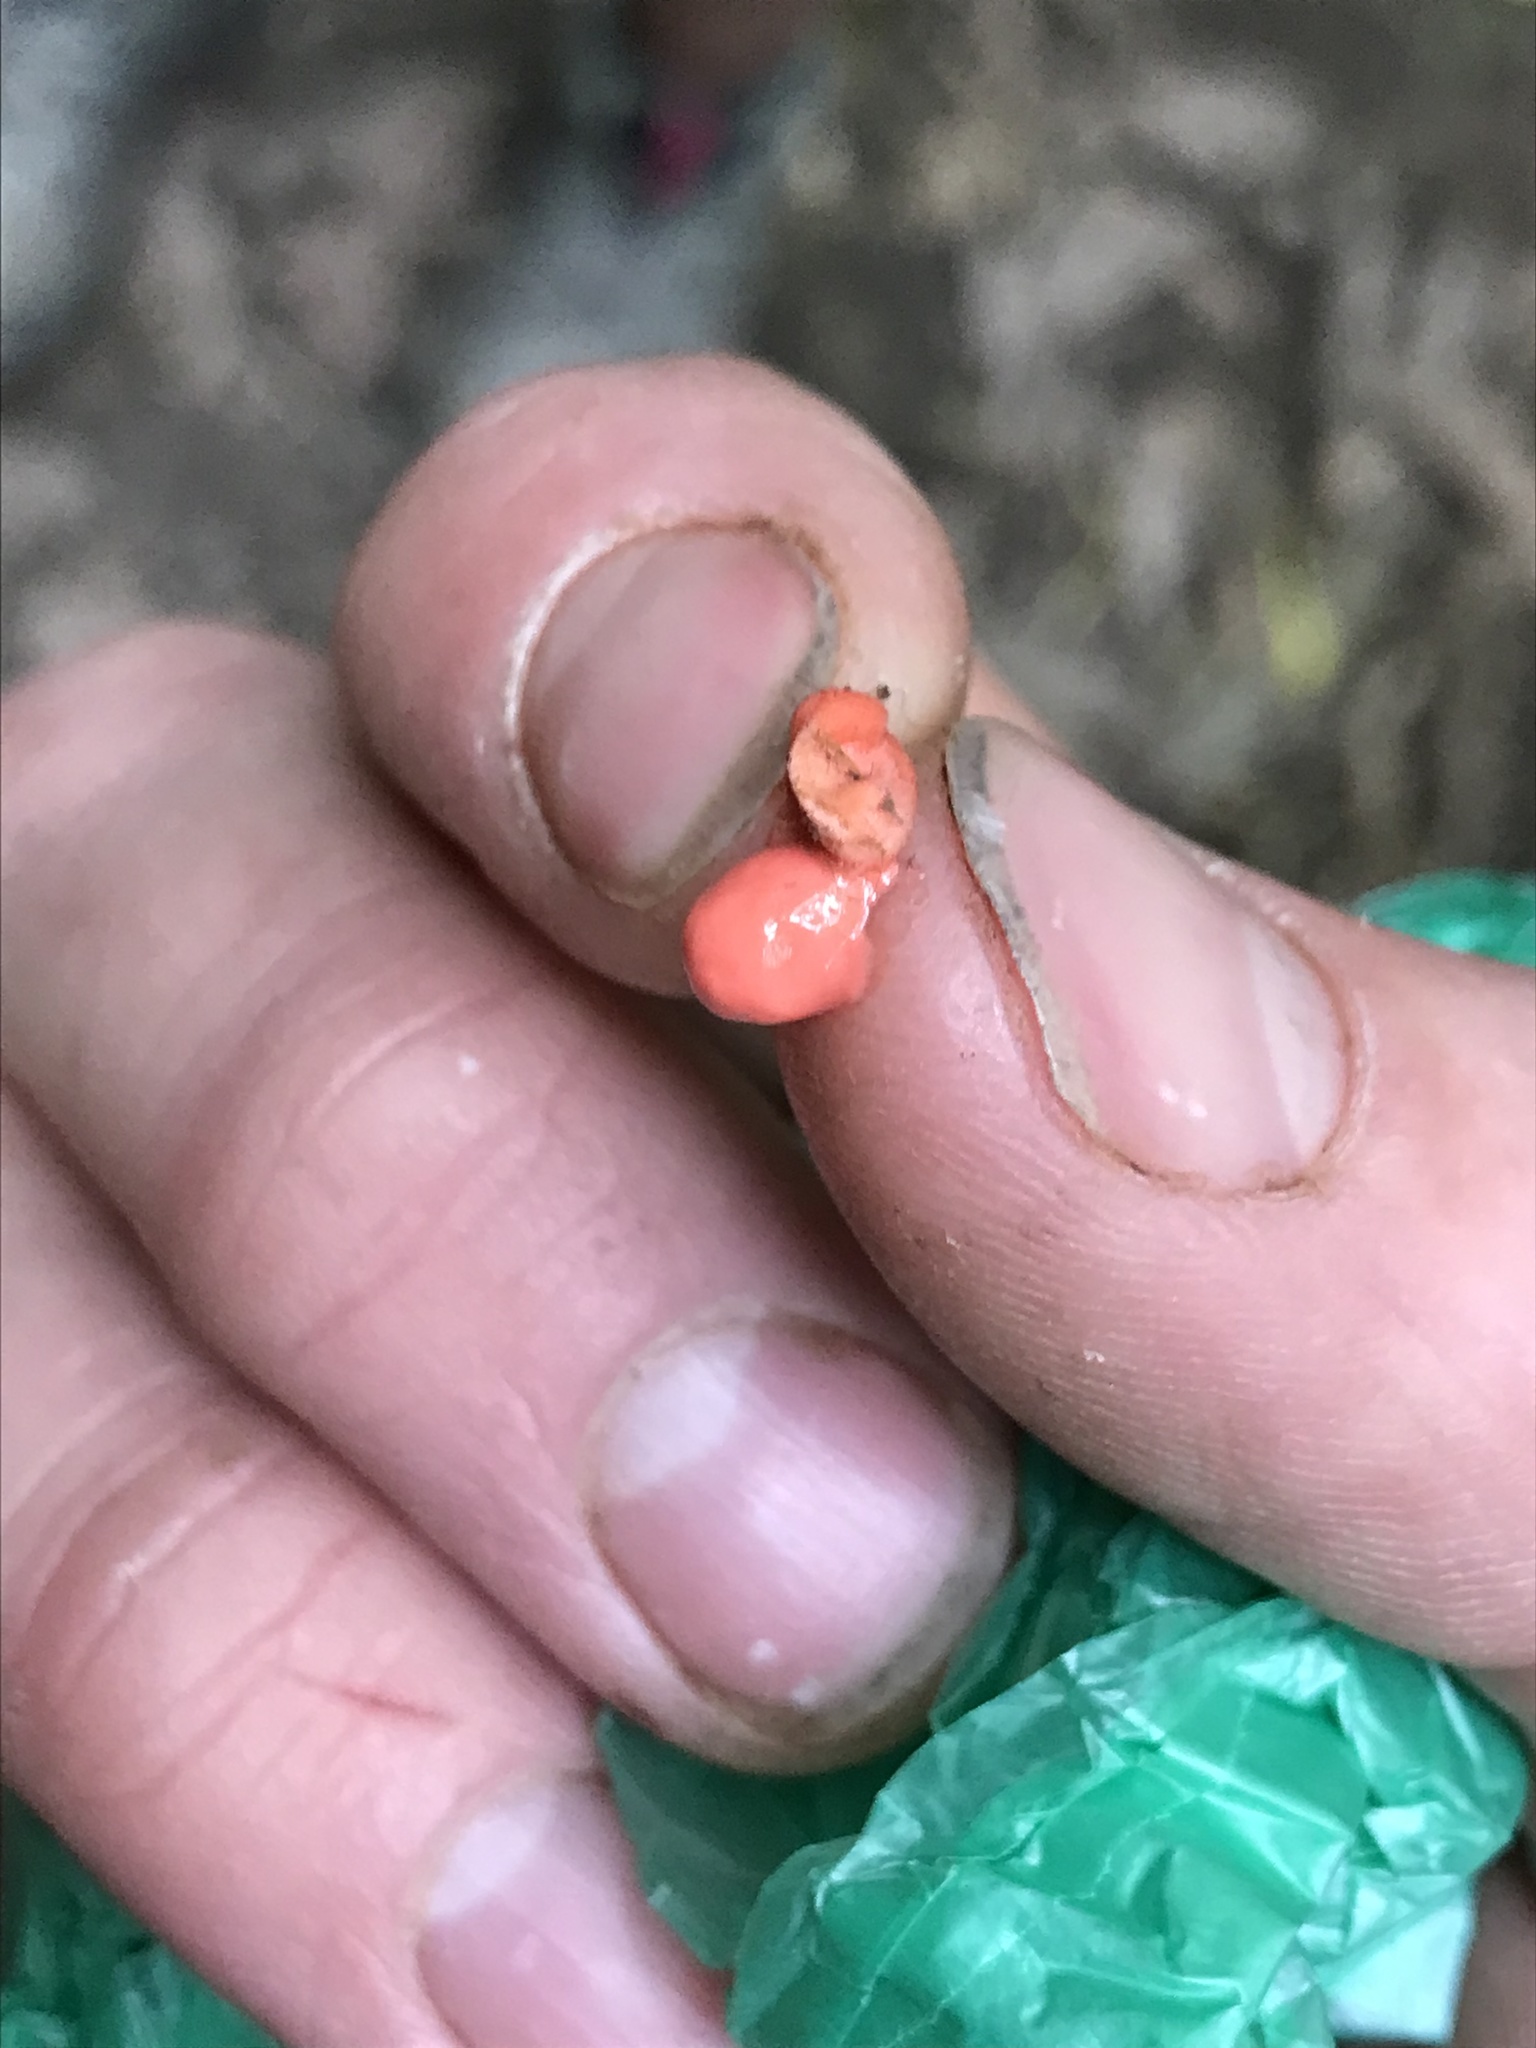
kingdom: Protozoa
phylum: Mycetozoa
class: Myxomycetes
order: Cribrariales
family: Tubiferaceae
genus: Lycogala
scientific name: Lycogala epidendrum
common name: Wolf's milk
